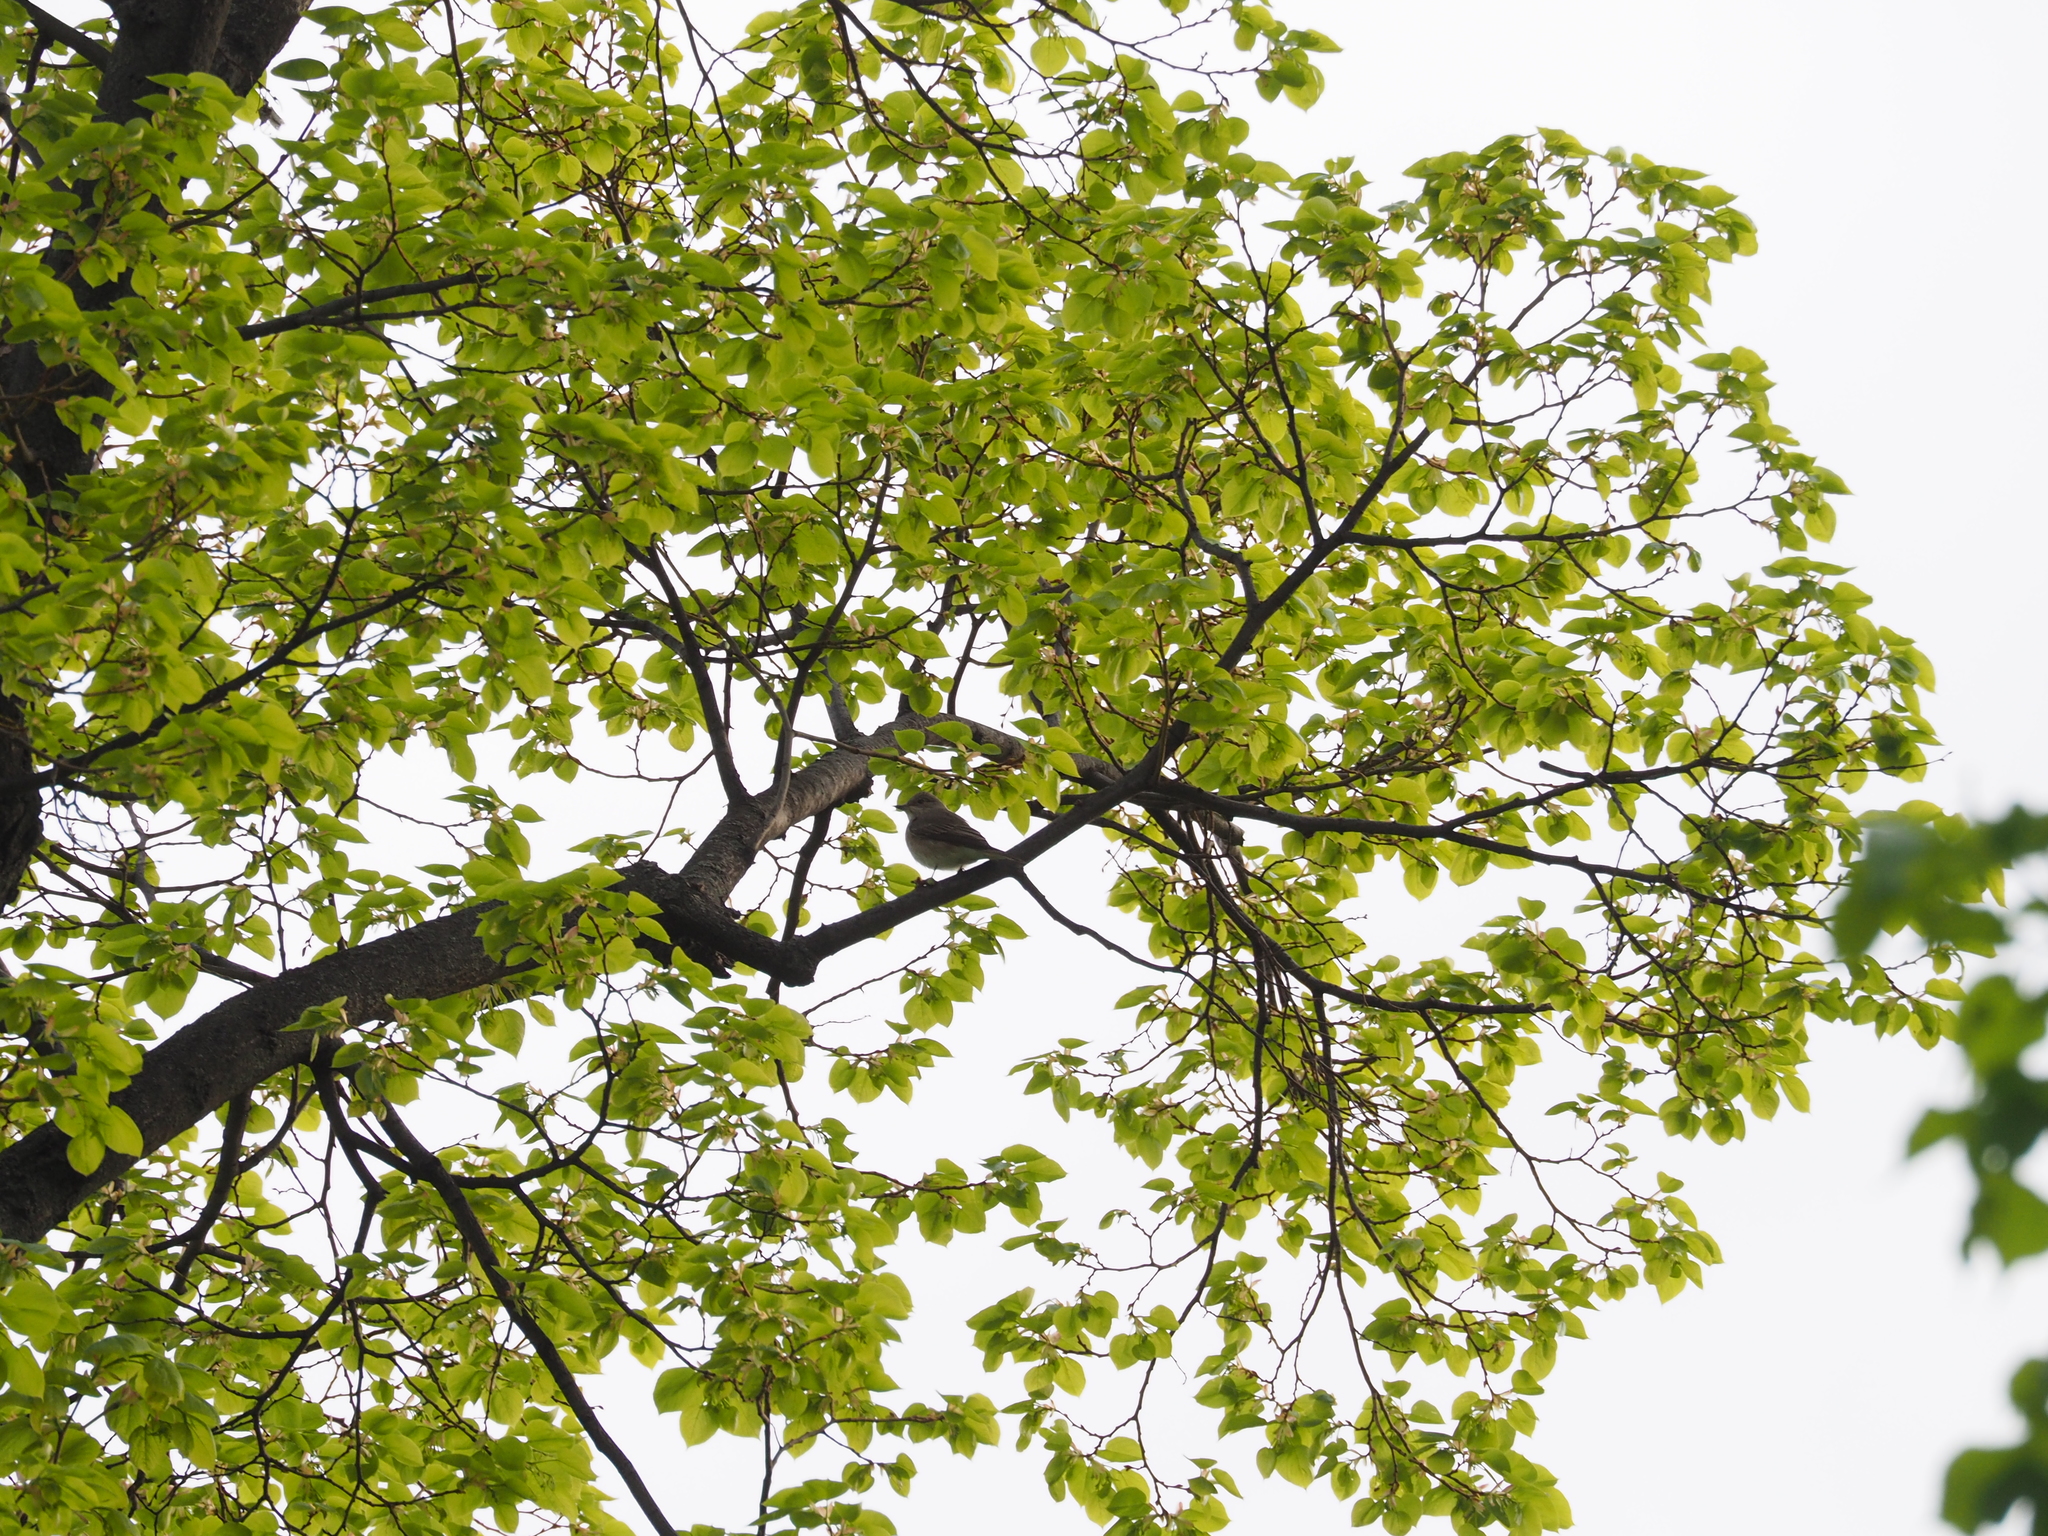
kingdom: Animalia
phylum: Chordata
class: Aves
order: Passeriformes
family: Muscicapidae
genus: Muscicapa
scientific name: Muscicapa striata
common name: Spotted flycatcher
